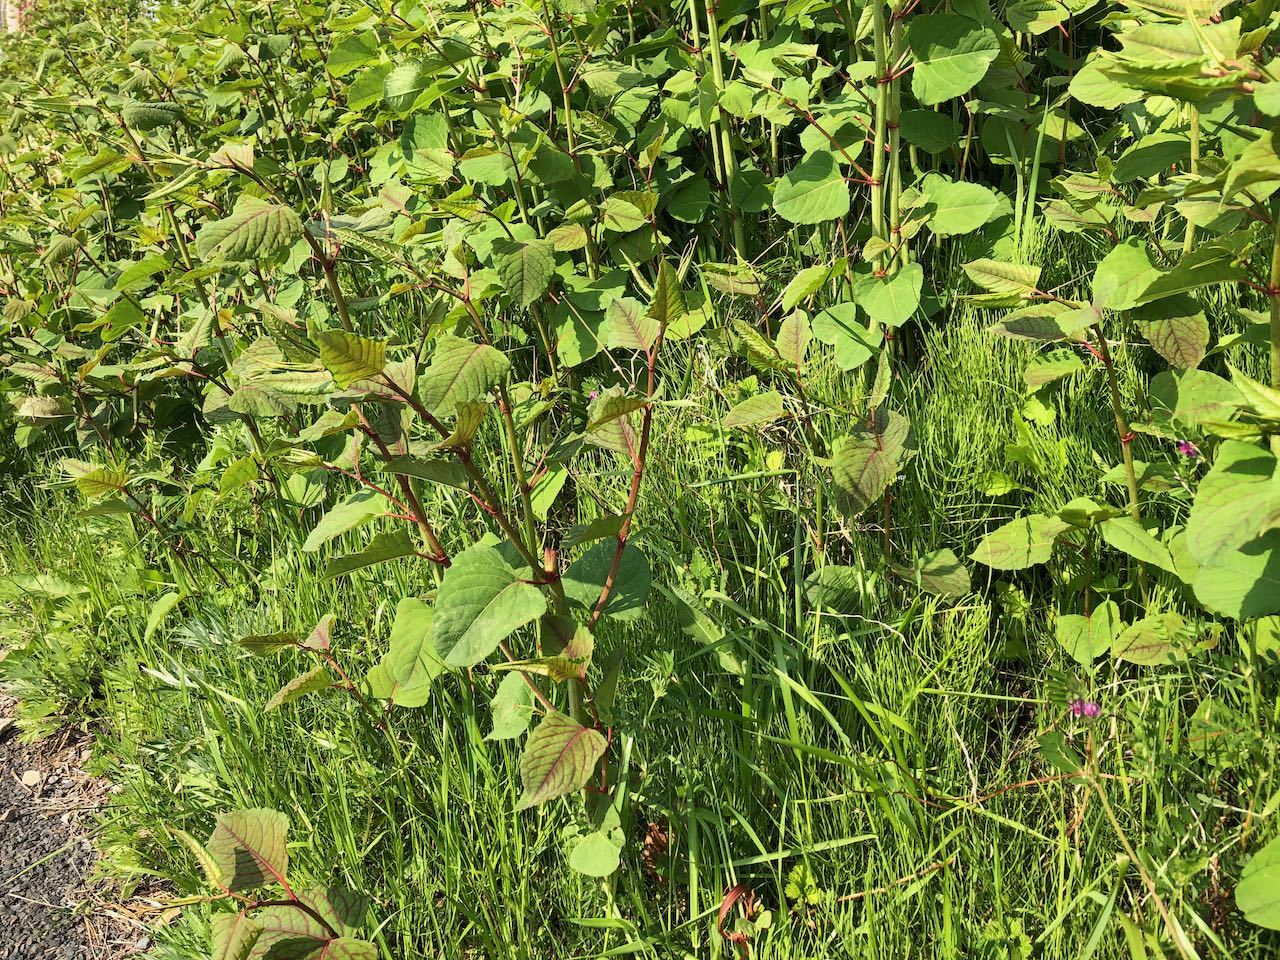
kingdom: Plantae
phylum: Tracheophyta
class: Magnoliopsida
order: Caryophyllales
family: Polygonaceae
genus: Reynoutria
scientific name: Reynoutria japonica
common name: Japanese knotweed
